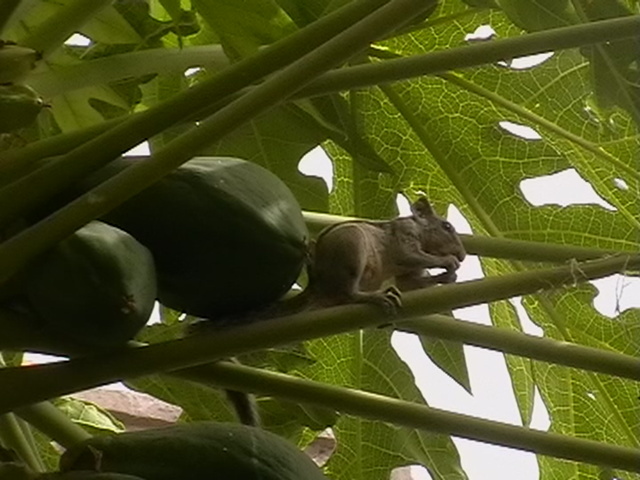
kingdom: Animalia
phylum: Chordata
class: Mammalia
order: Rodentia
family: Sciuridae
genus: Funambulus
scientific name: Funambulus pennantii
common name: Northern palm squirrel
